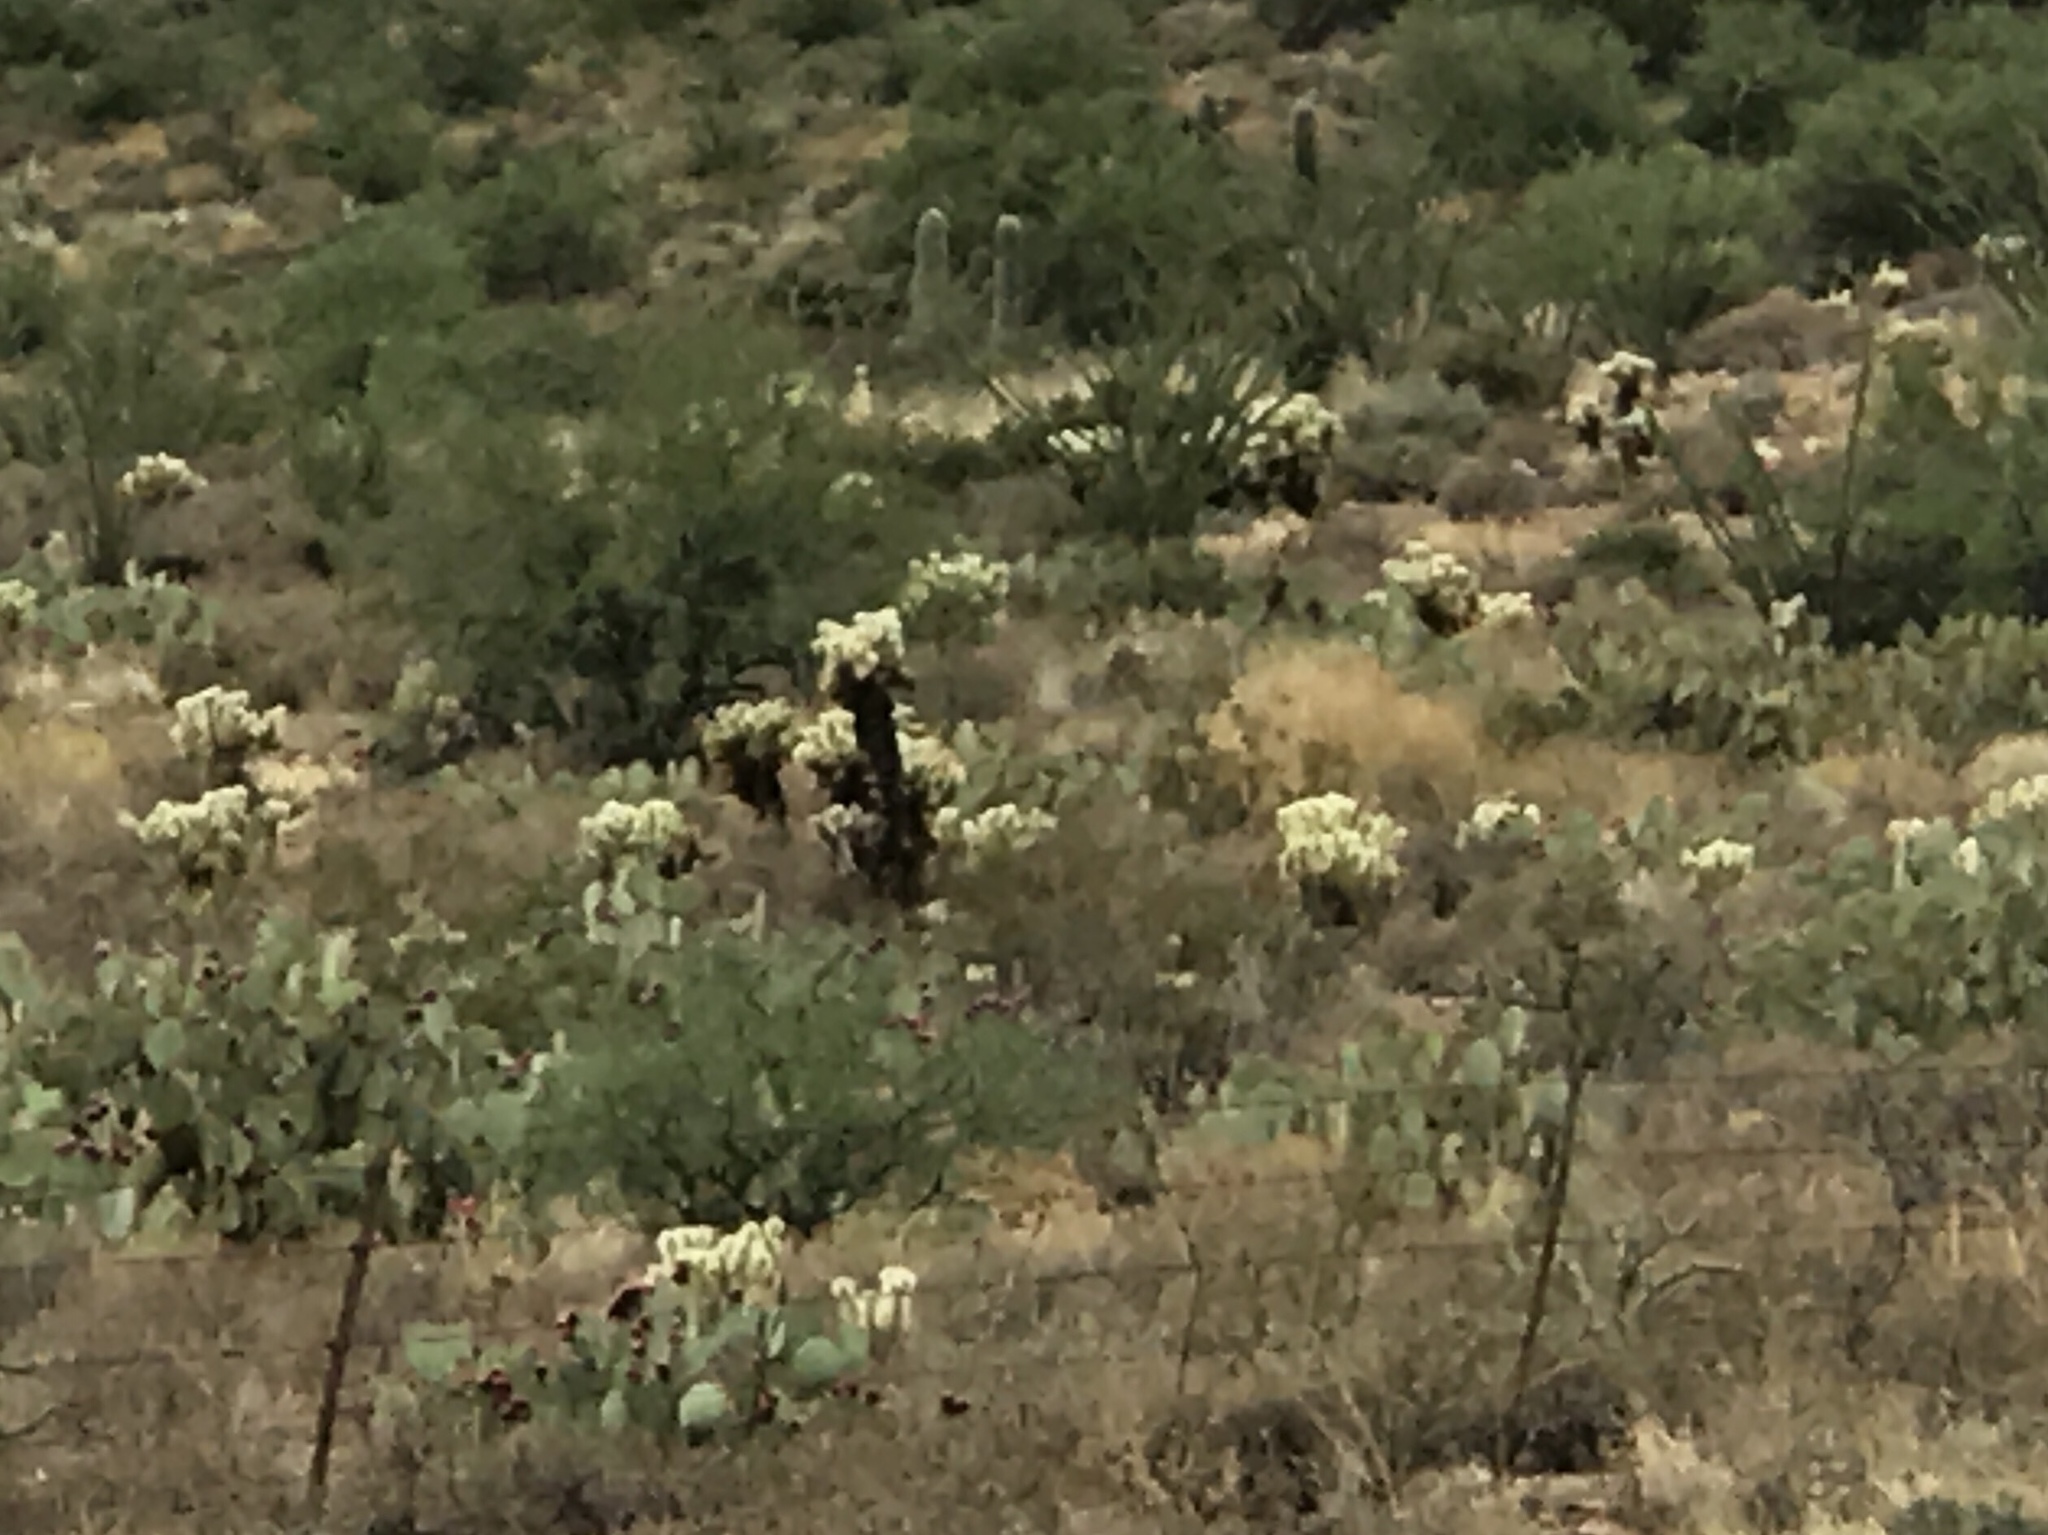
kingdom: Plantae
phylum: Tracheophyta
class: Magnoliopsida
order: Caryophyllales
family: Cactaceae
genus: Cylindropuntia
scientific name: Cylindropuntia fosbergii
